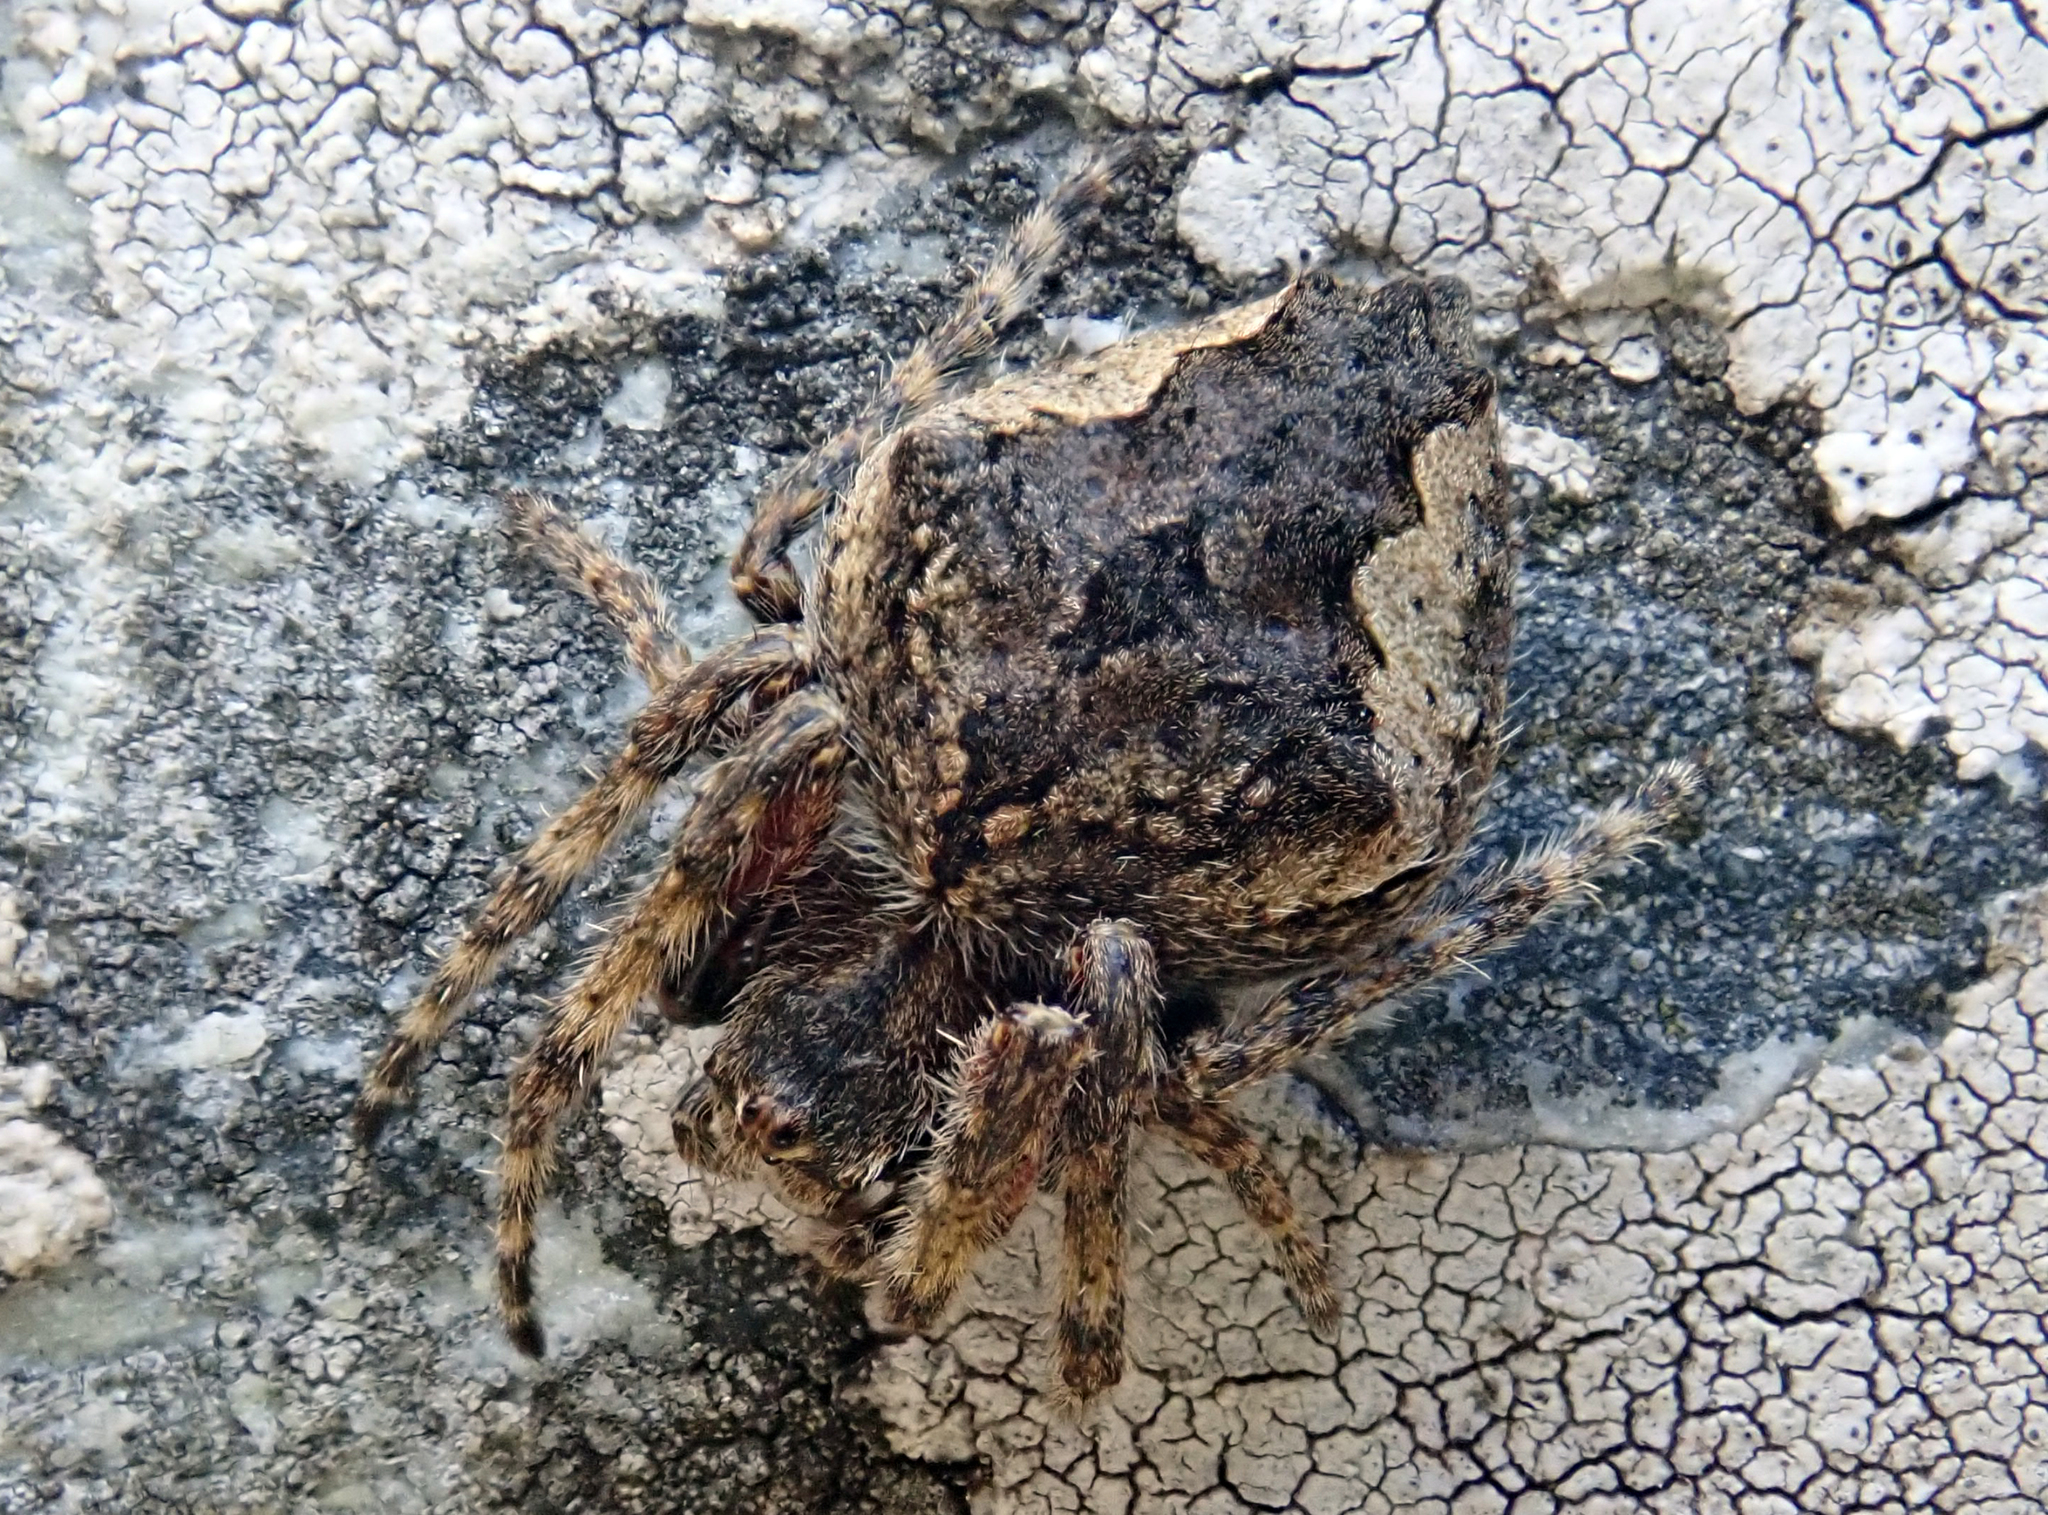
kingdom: Animalia
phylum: Arthropoda
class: Arachnida
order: Araneae
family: Araneidae
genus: Eriophora
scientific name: Eriophora pustulosa
